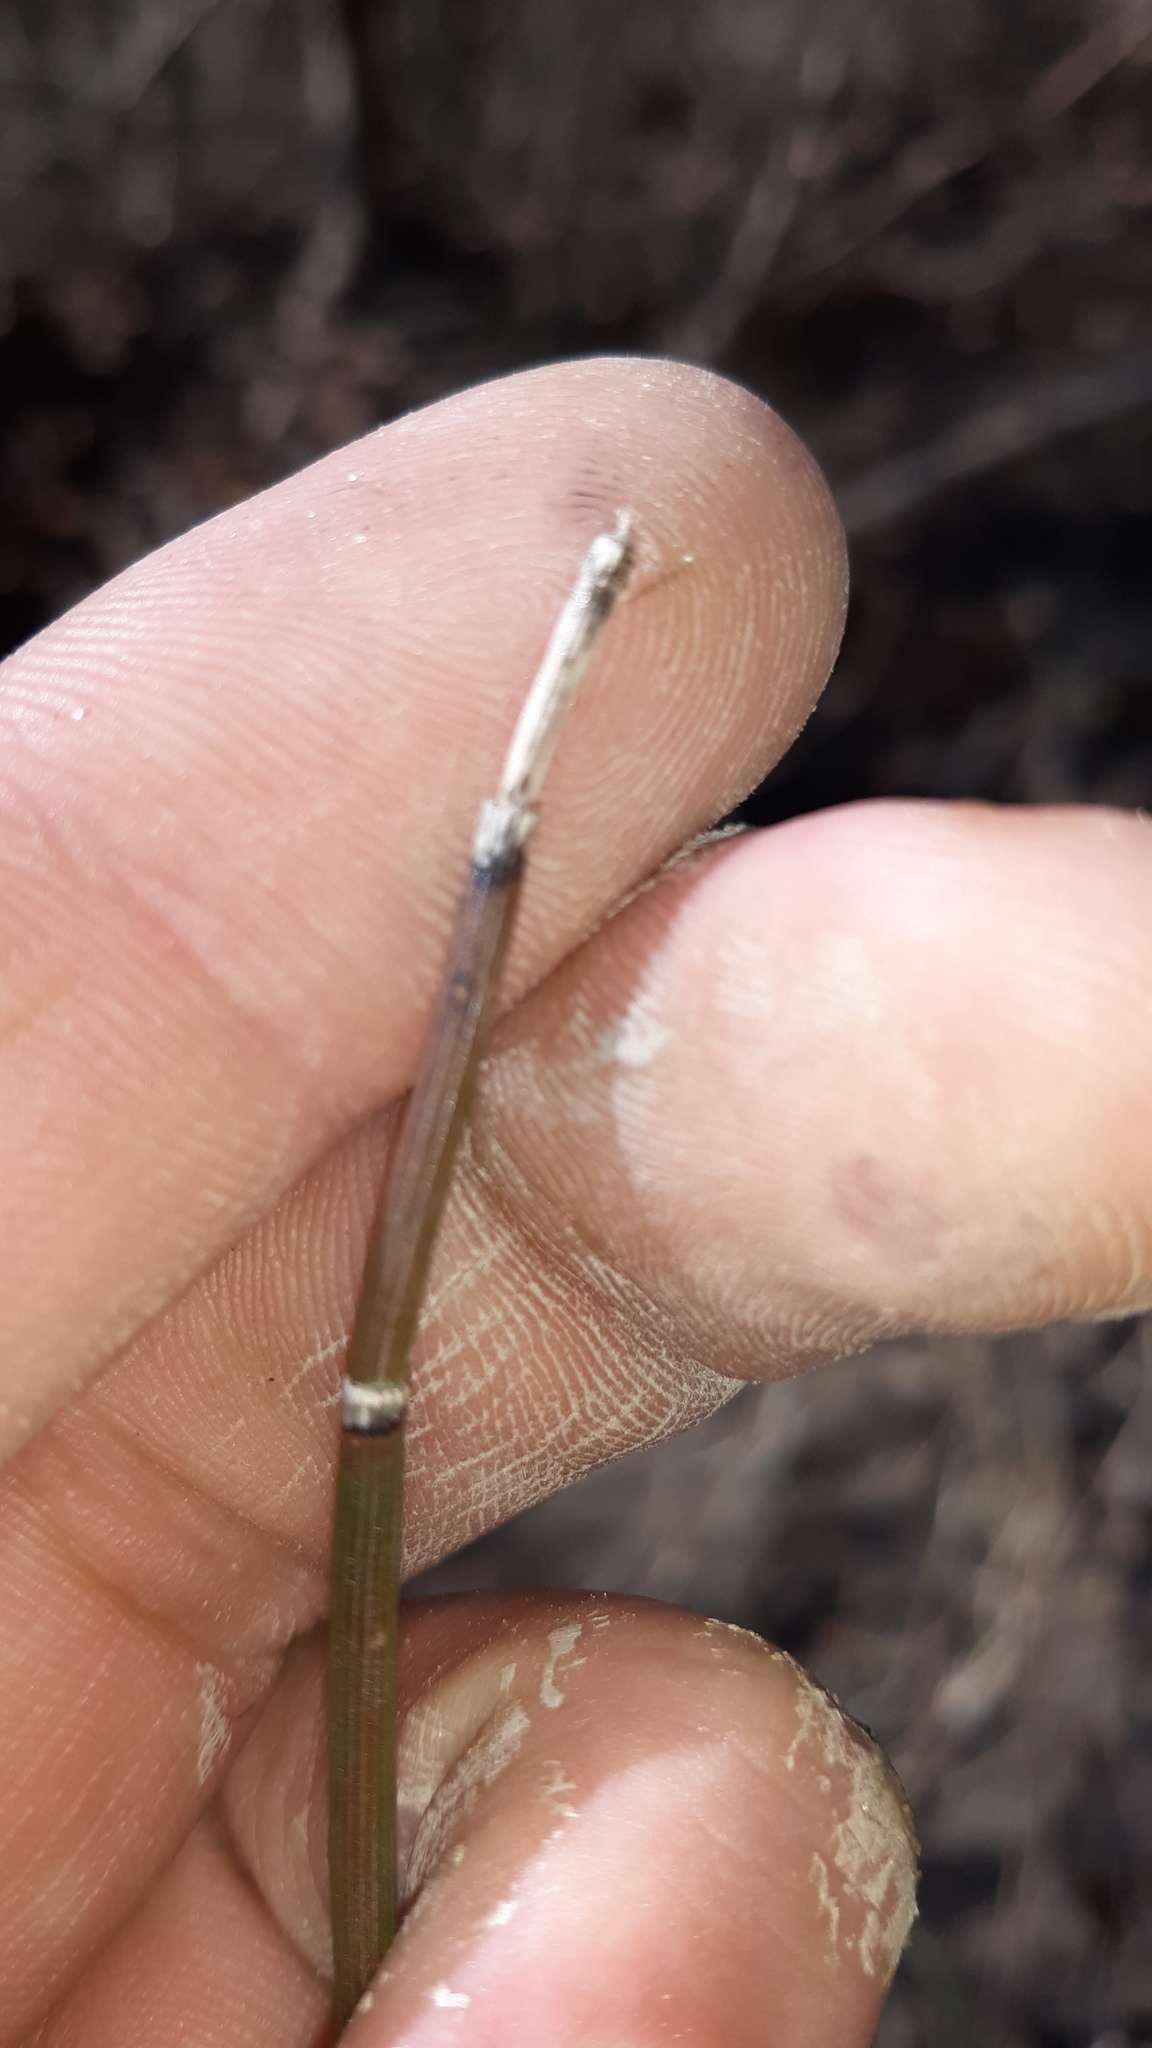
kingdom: Plantae
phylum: Tracheophyta
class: Polypodiopsida
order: Equisetales
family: Equisetaceae
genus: Equisetum
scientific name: Equisetum hyemale
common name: Rough horsetail
